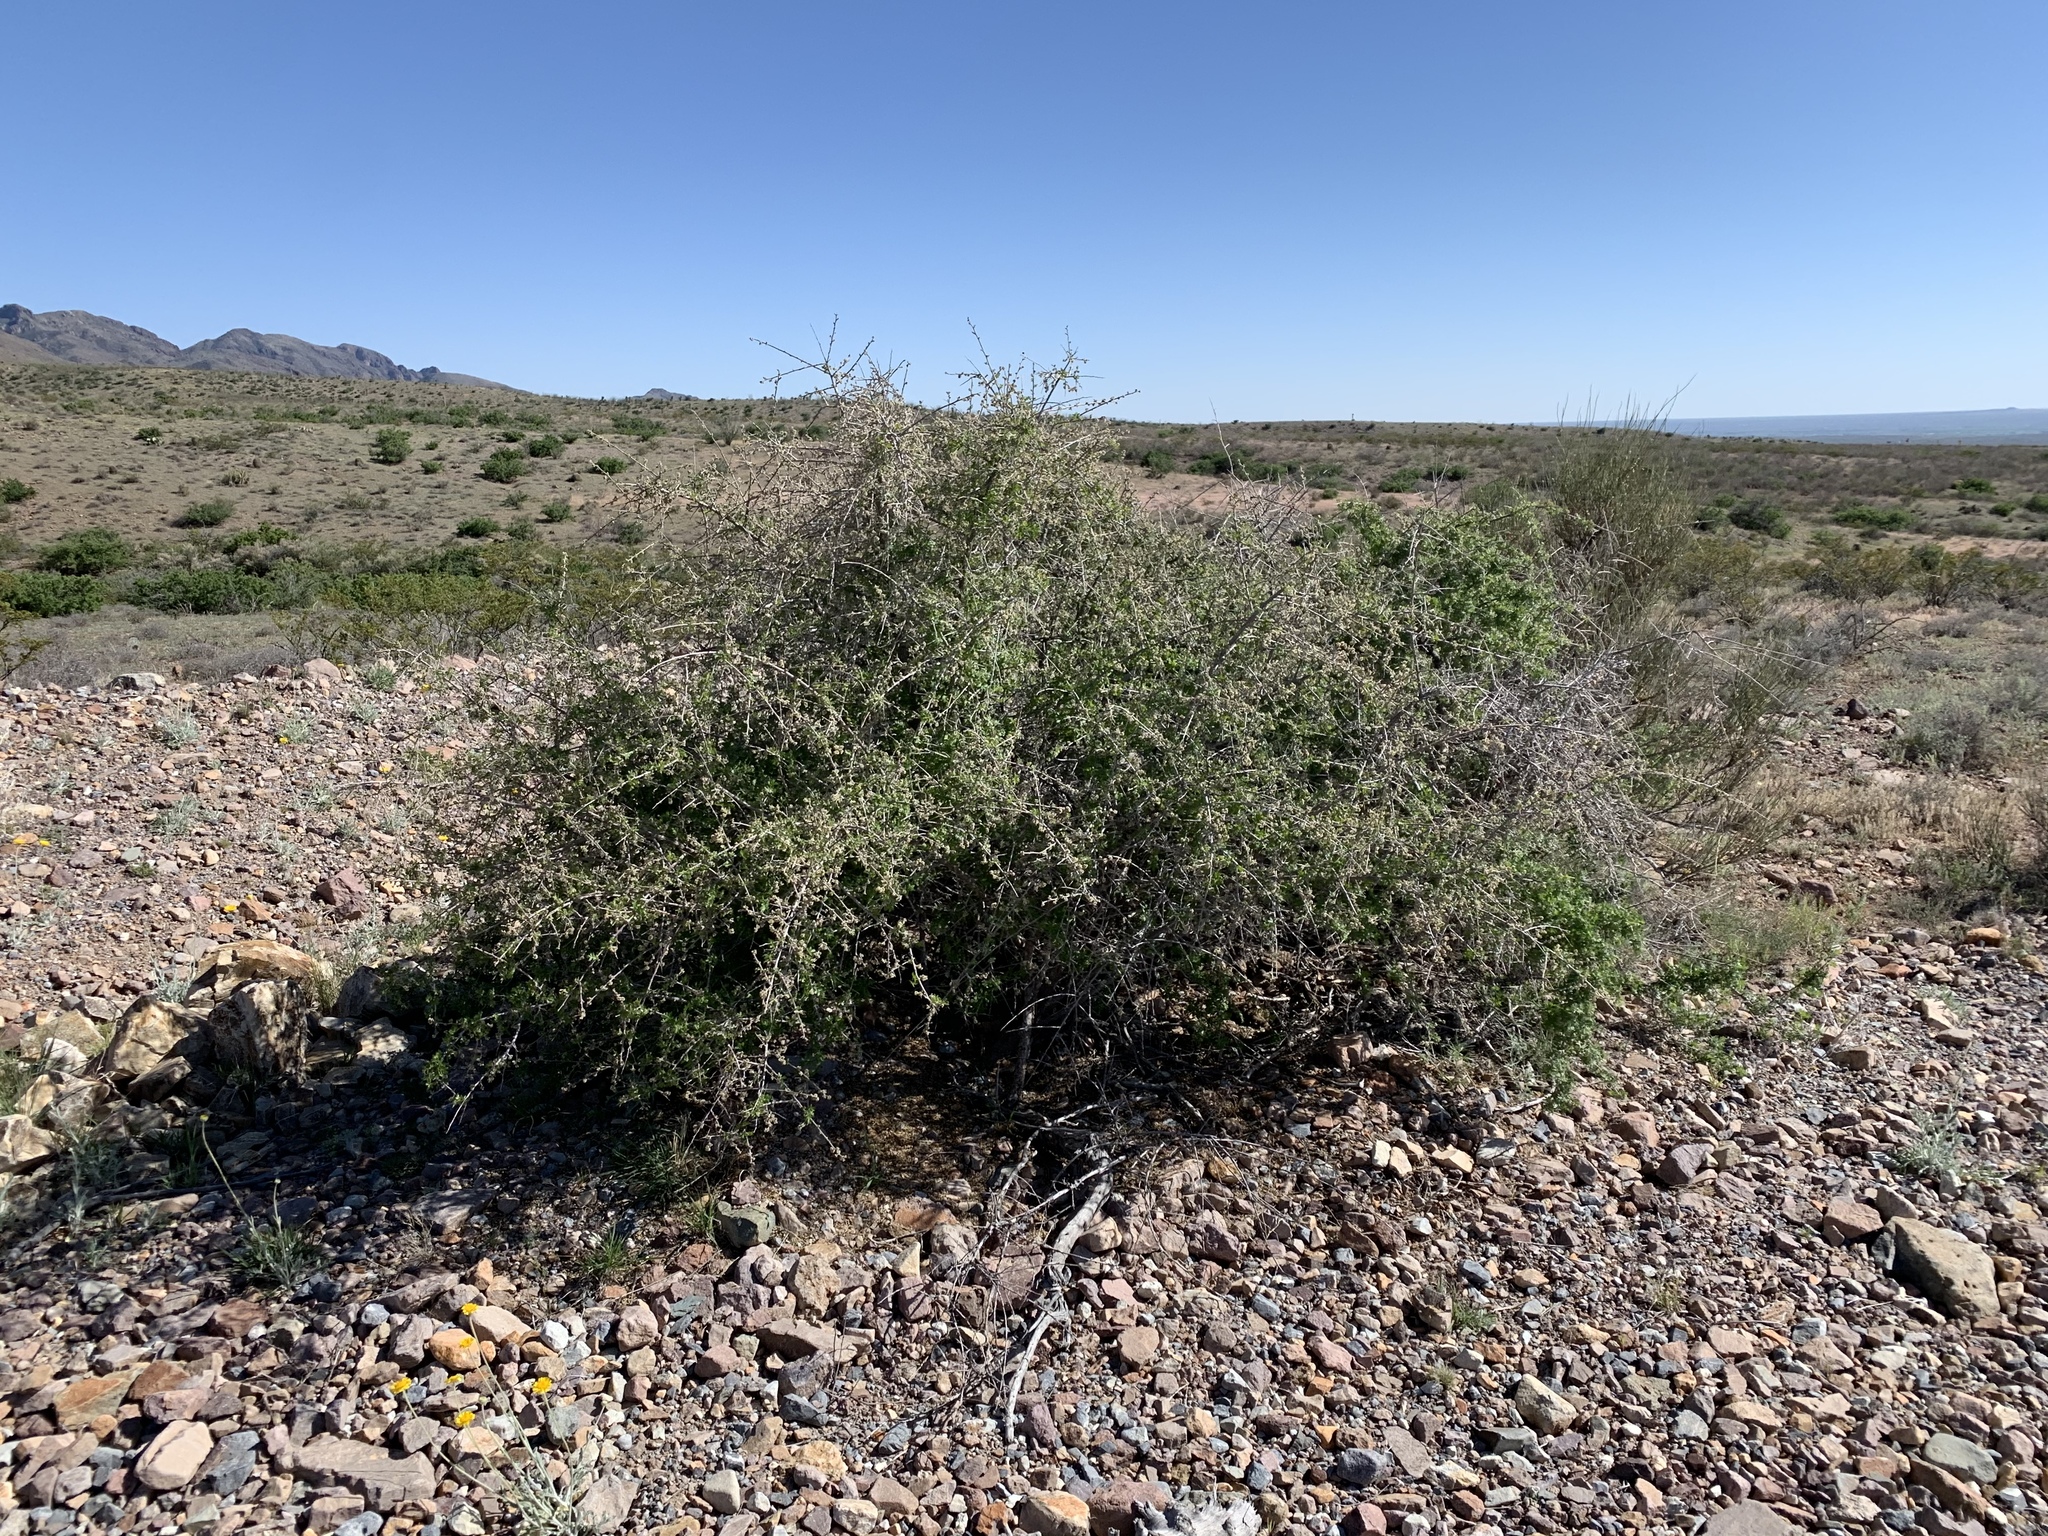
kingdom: Plantae
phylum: Tracheophyta
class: Magnoliopsida
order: Sapindales
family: Anacardiaceae
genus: Rhus
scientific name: Rhus microphylla
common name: Desert sumac
